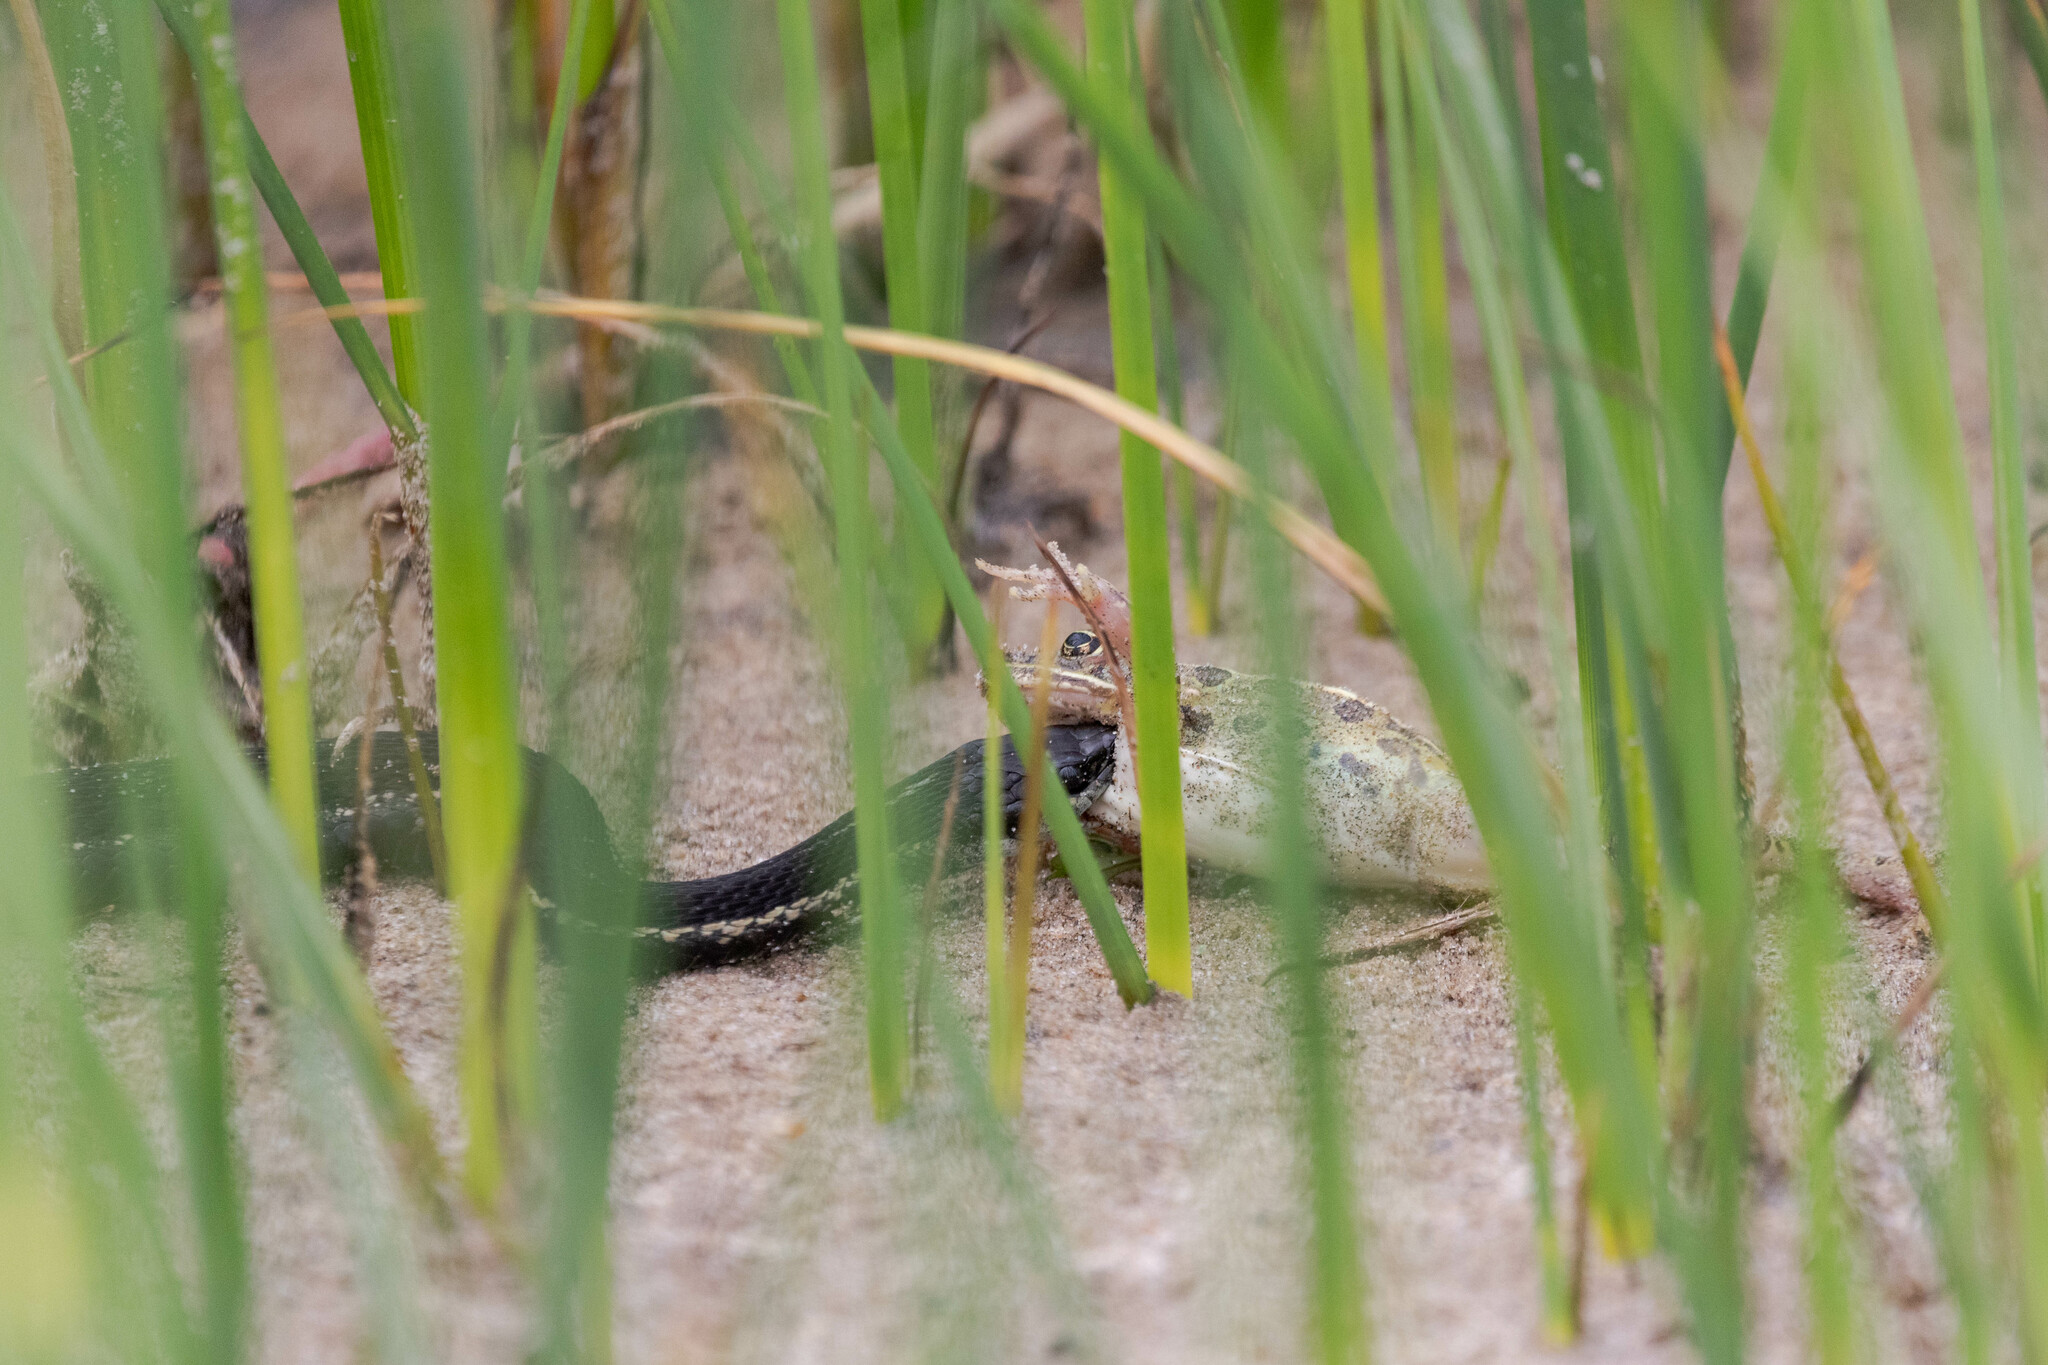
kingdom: Animalia
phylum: Chordata
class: Squamata
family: Colubridae
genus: Thamnophis
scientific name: Thamnophis sirtalis
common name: Common garter snake
